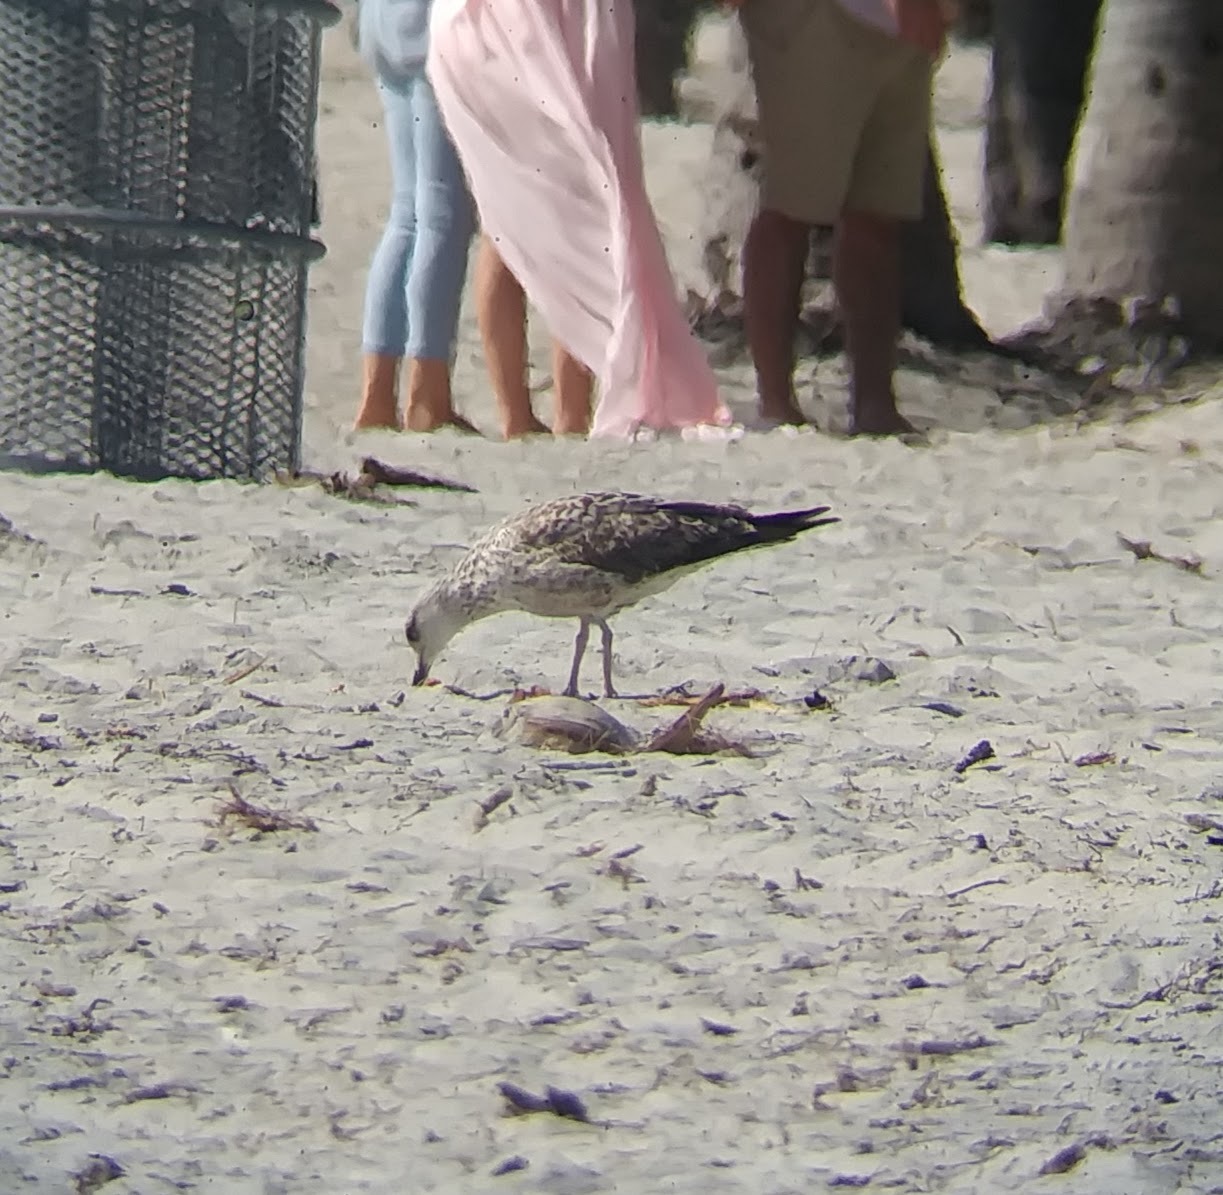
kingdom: Animalia
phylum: Chordata
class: Aves
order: Charadriiformes
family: Laridae
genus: Larus
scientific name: Larus fuscus
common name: Lesser black-backed gull
